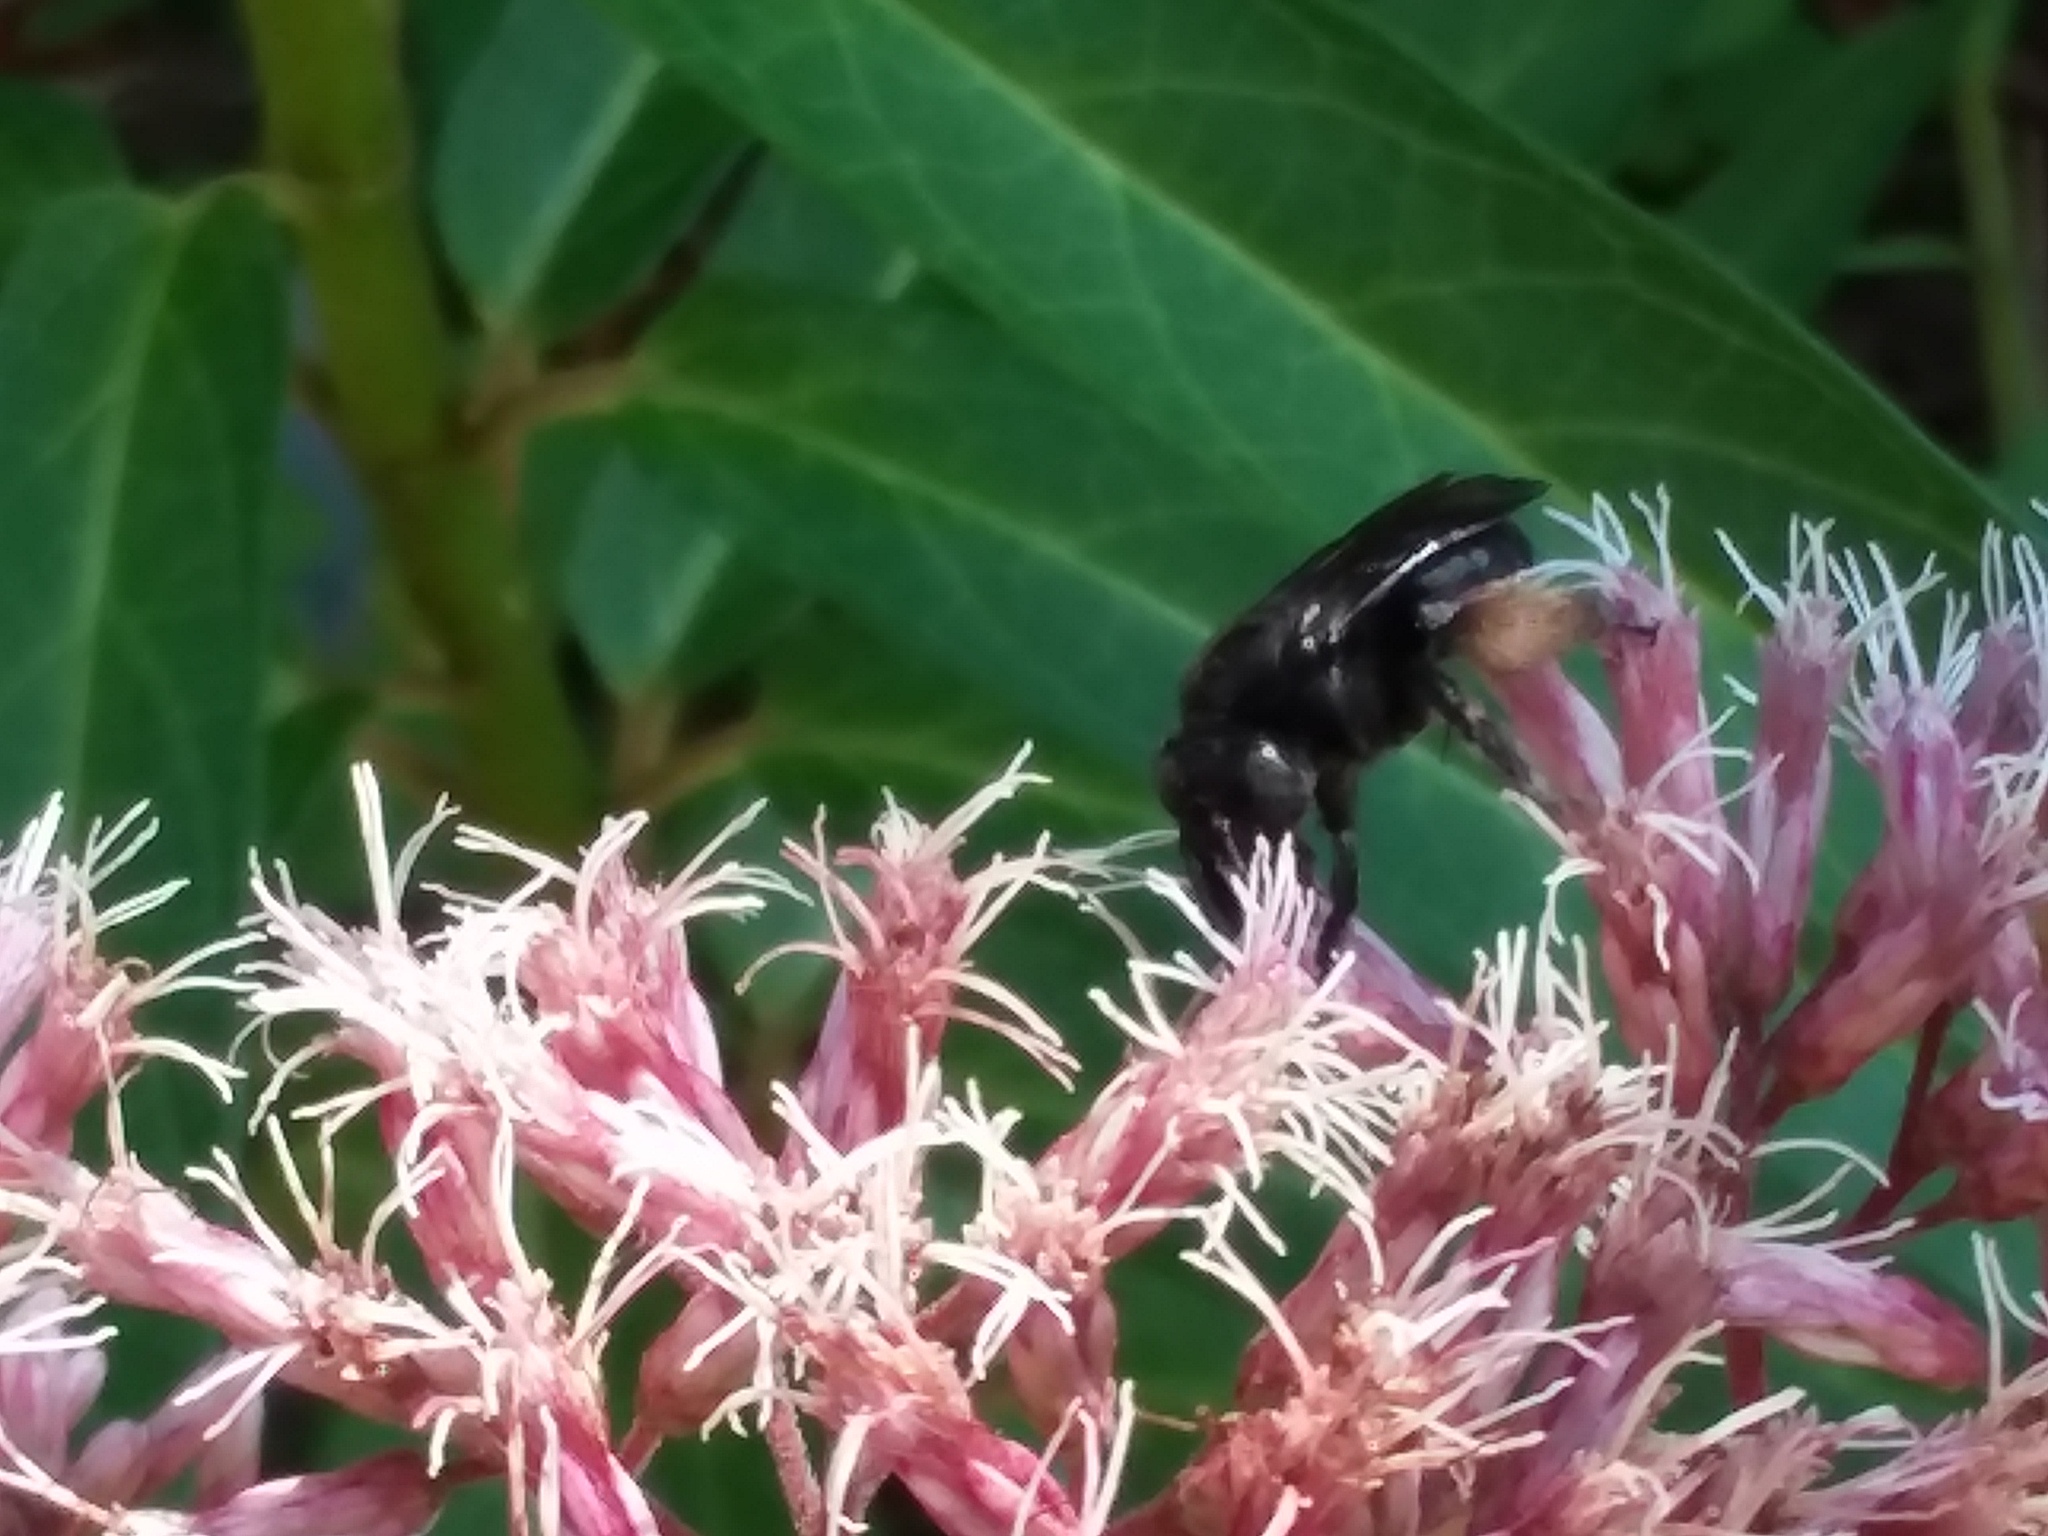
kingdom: Animalia
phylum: Arthropoda
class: Insecta
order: Hymenoptera
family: Apidae
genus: Melissodes
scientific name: Melissodes bimaculatus
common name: Two-spotted long-horned bee
